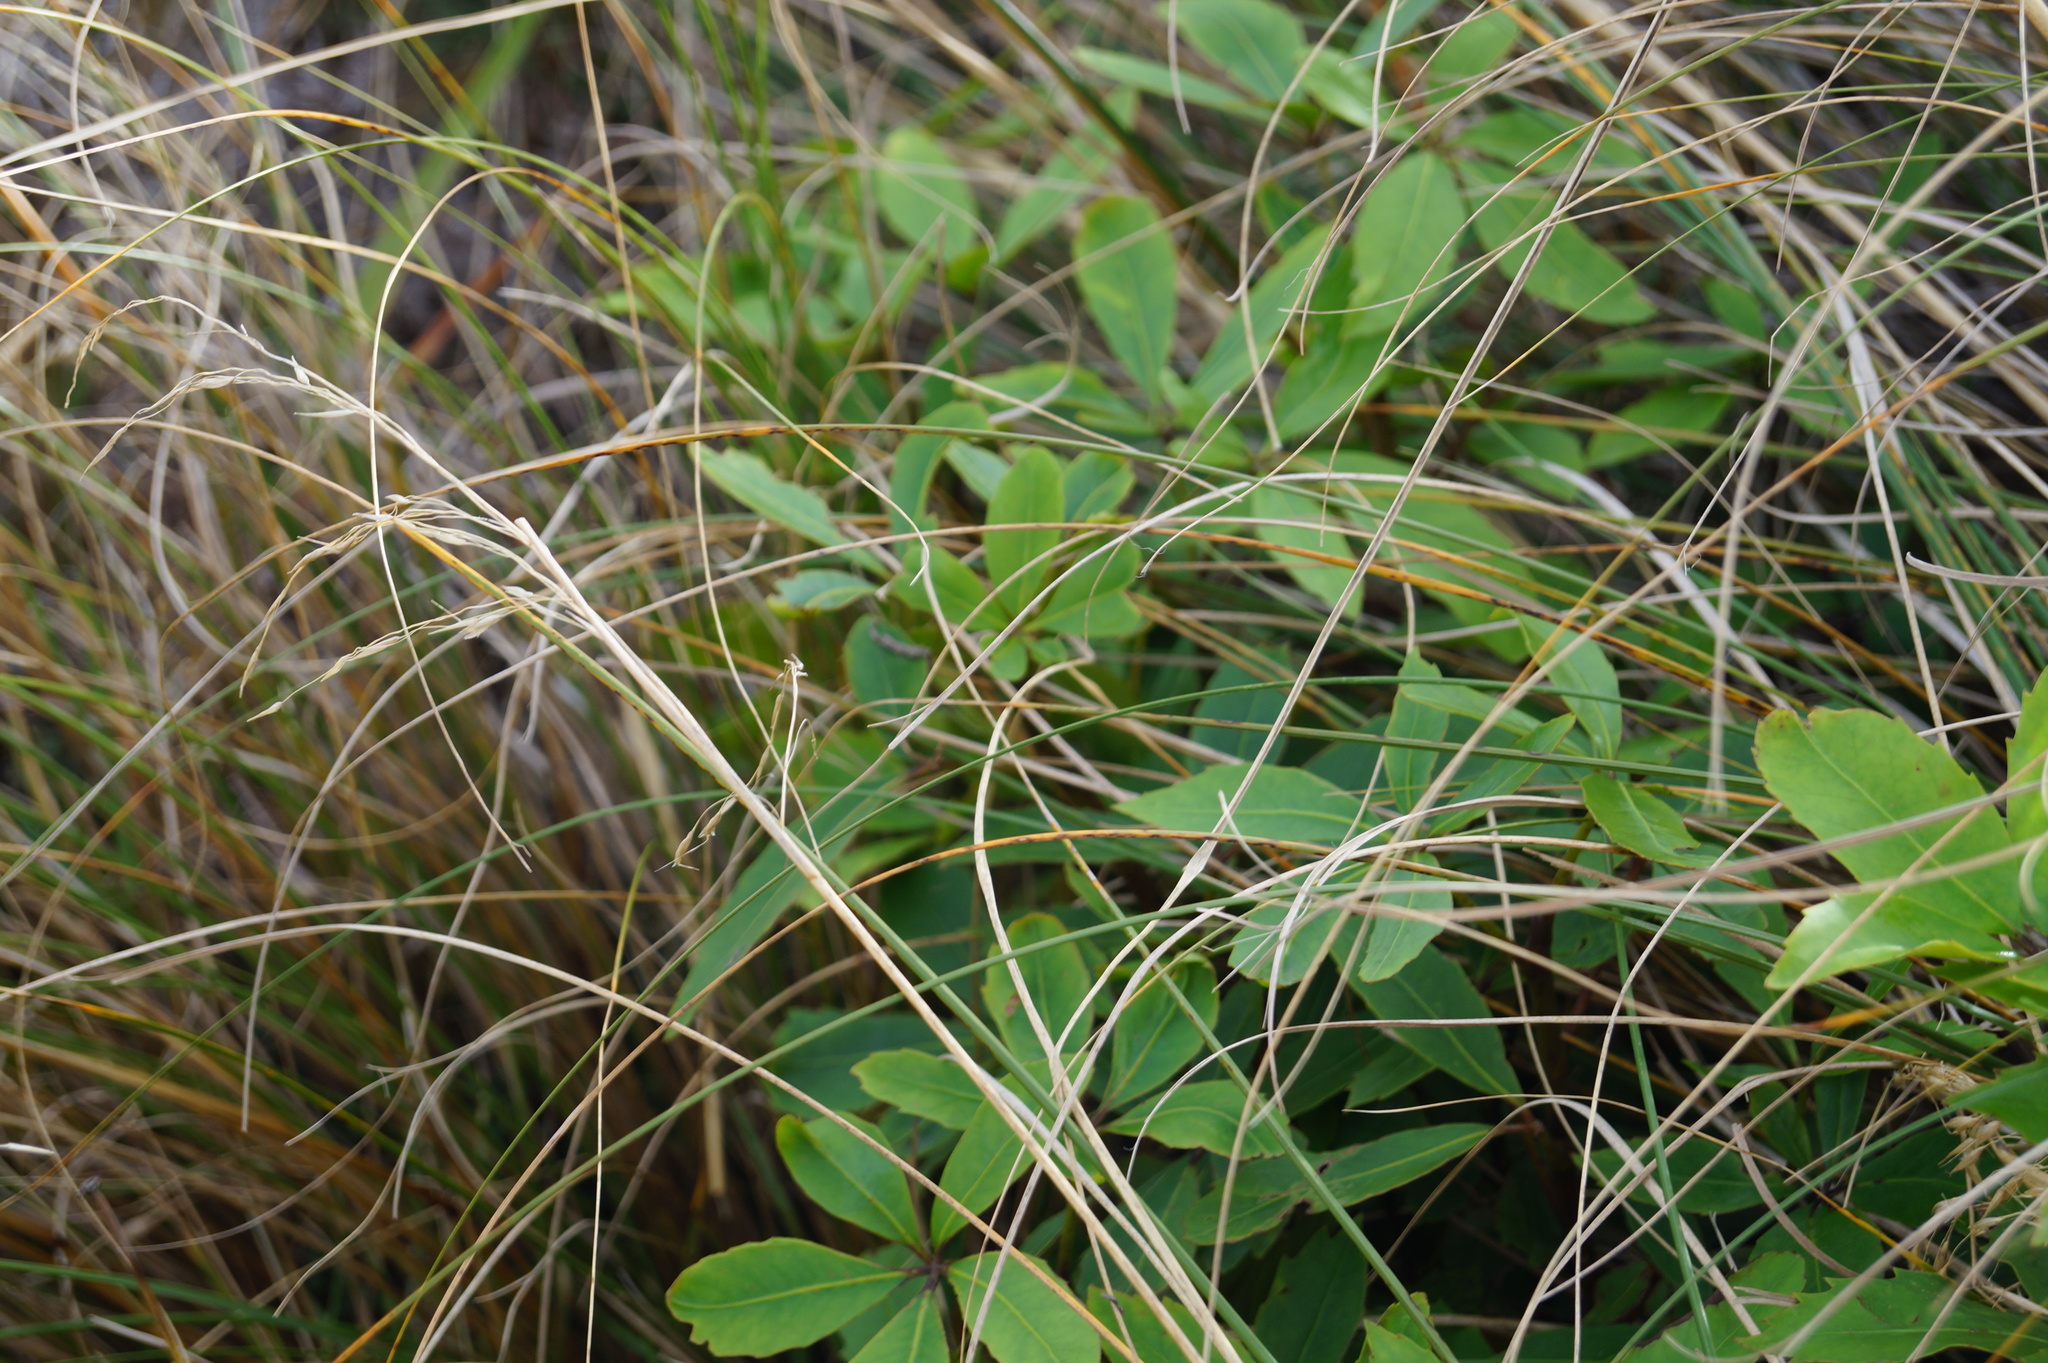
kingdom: Plantae
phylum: Tracheophyta
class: Magnoliopsida
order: Apiales
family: Araliaceae
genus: Neopanax
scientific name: Neopanax colensoi
